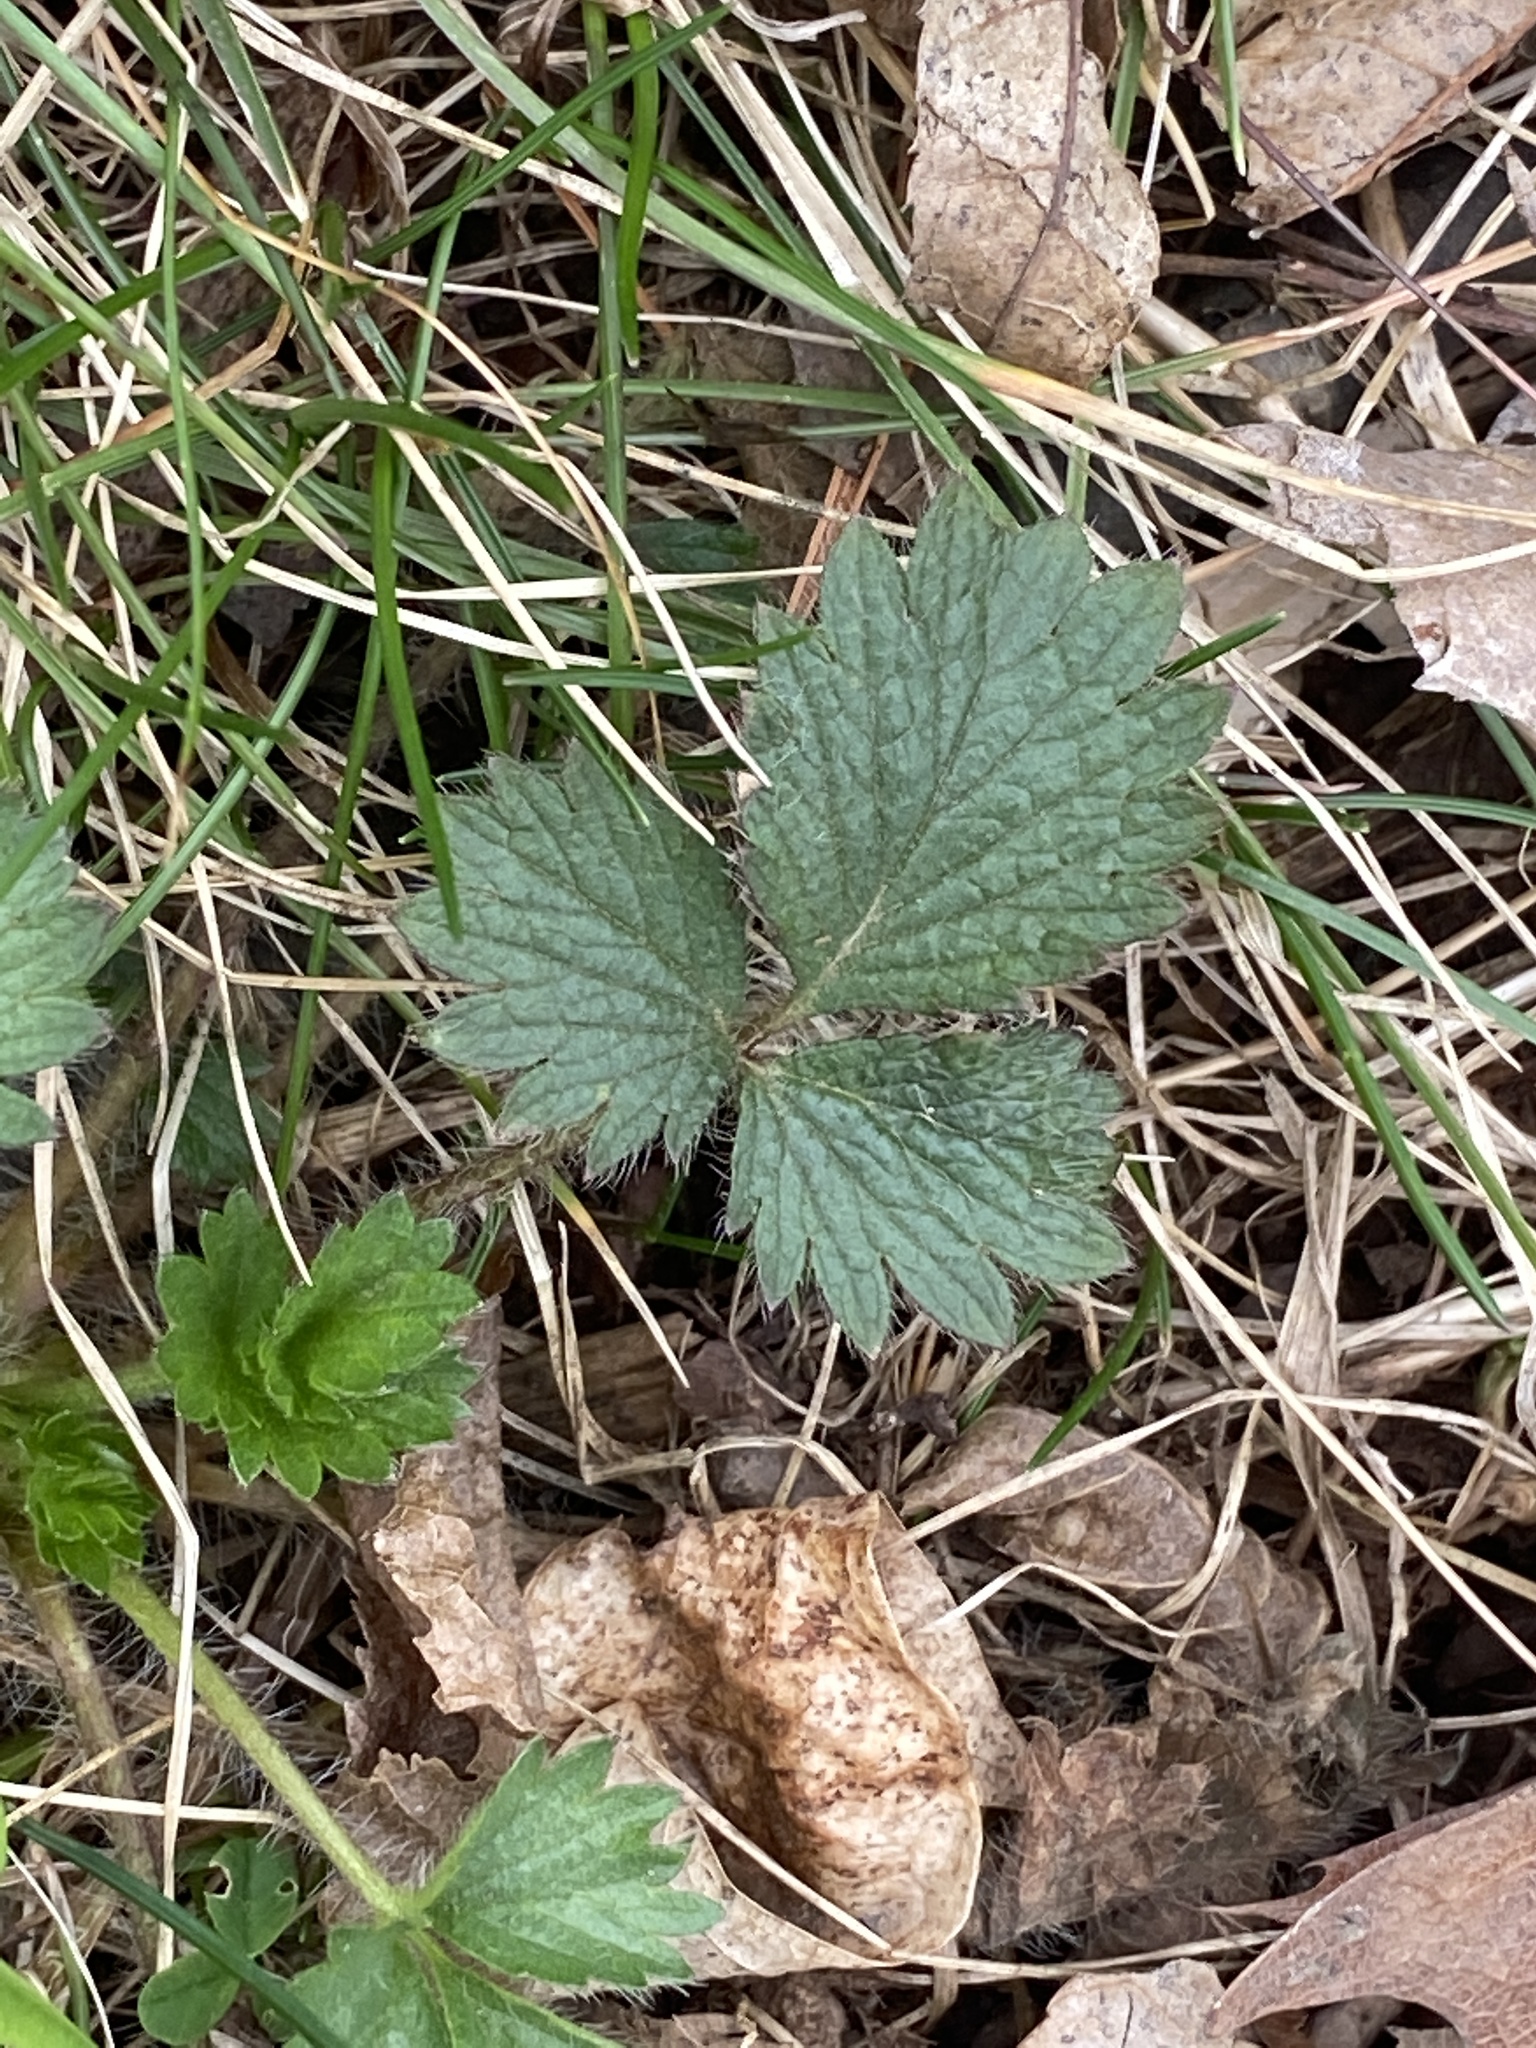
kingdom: Plantae
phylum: Tracheophyta
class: Magnoliopsida
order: Rosales
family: Rosaceae
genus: Potentilla
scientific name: Potentilla indica
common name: Yellow-flowered strawberry
